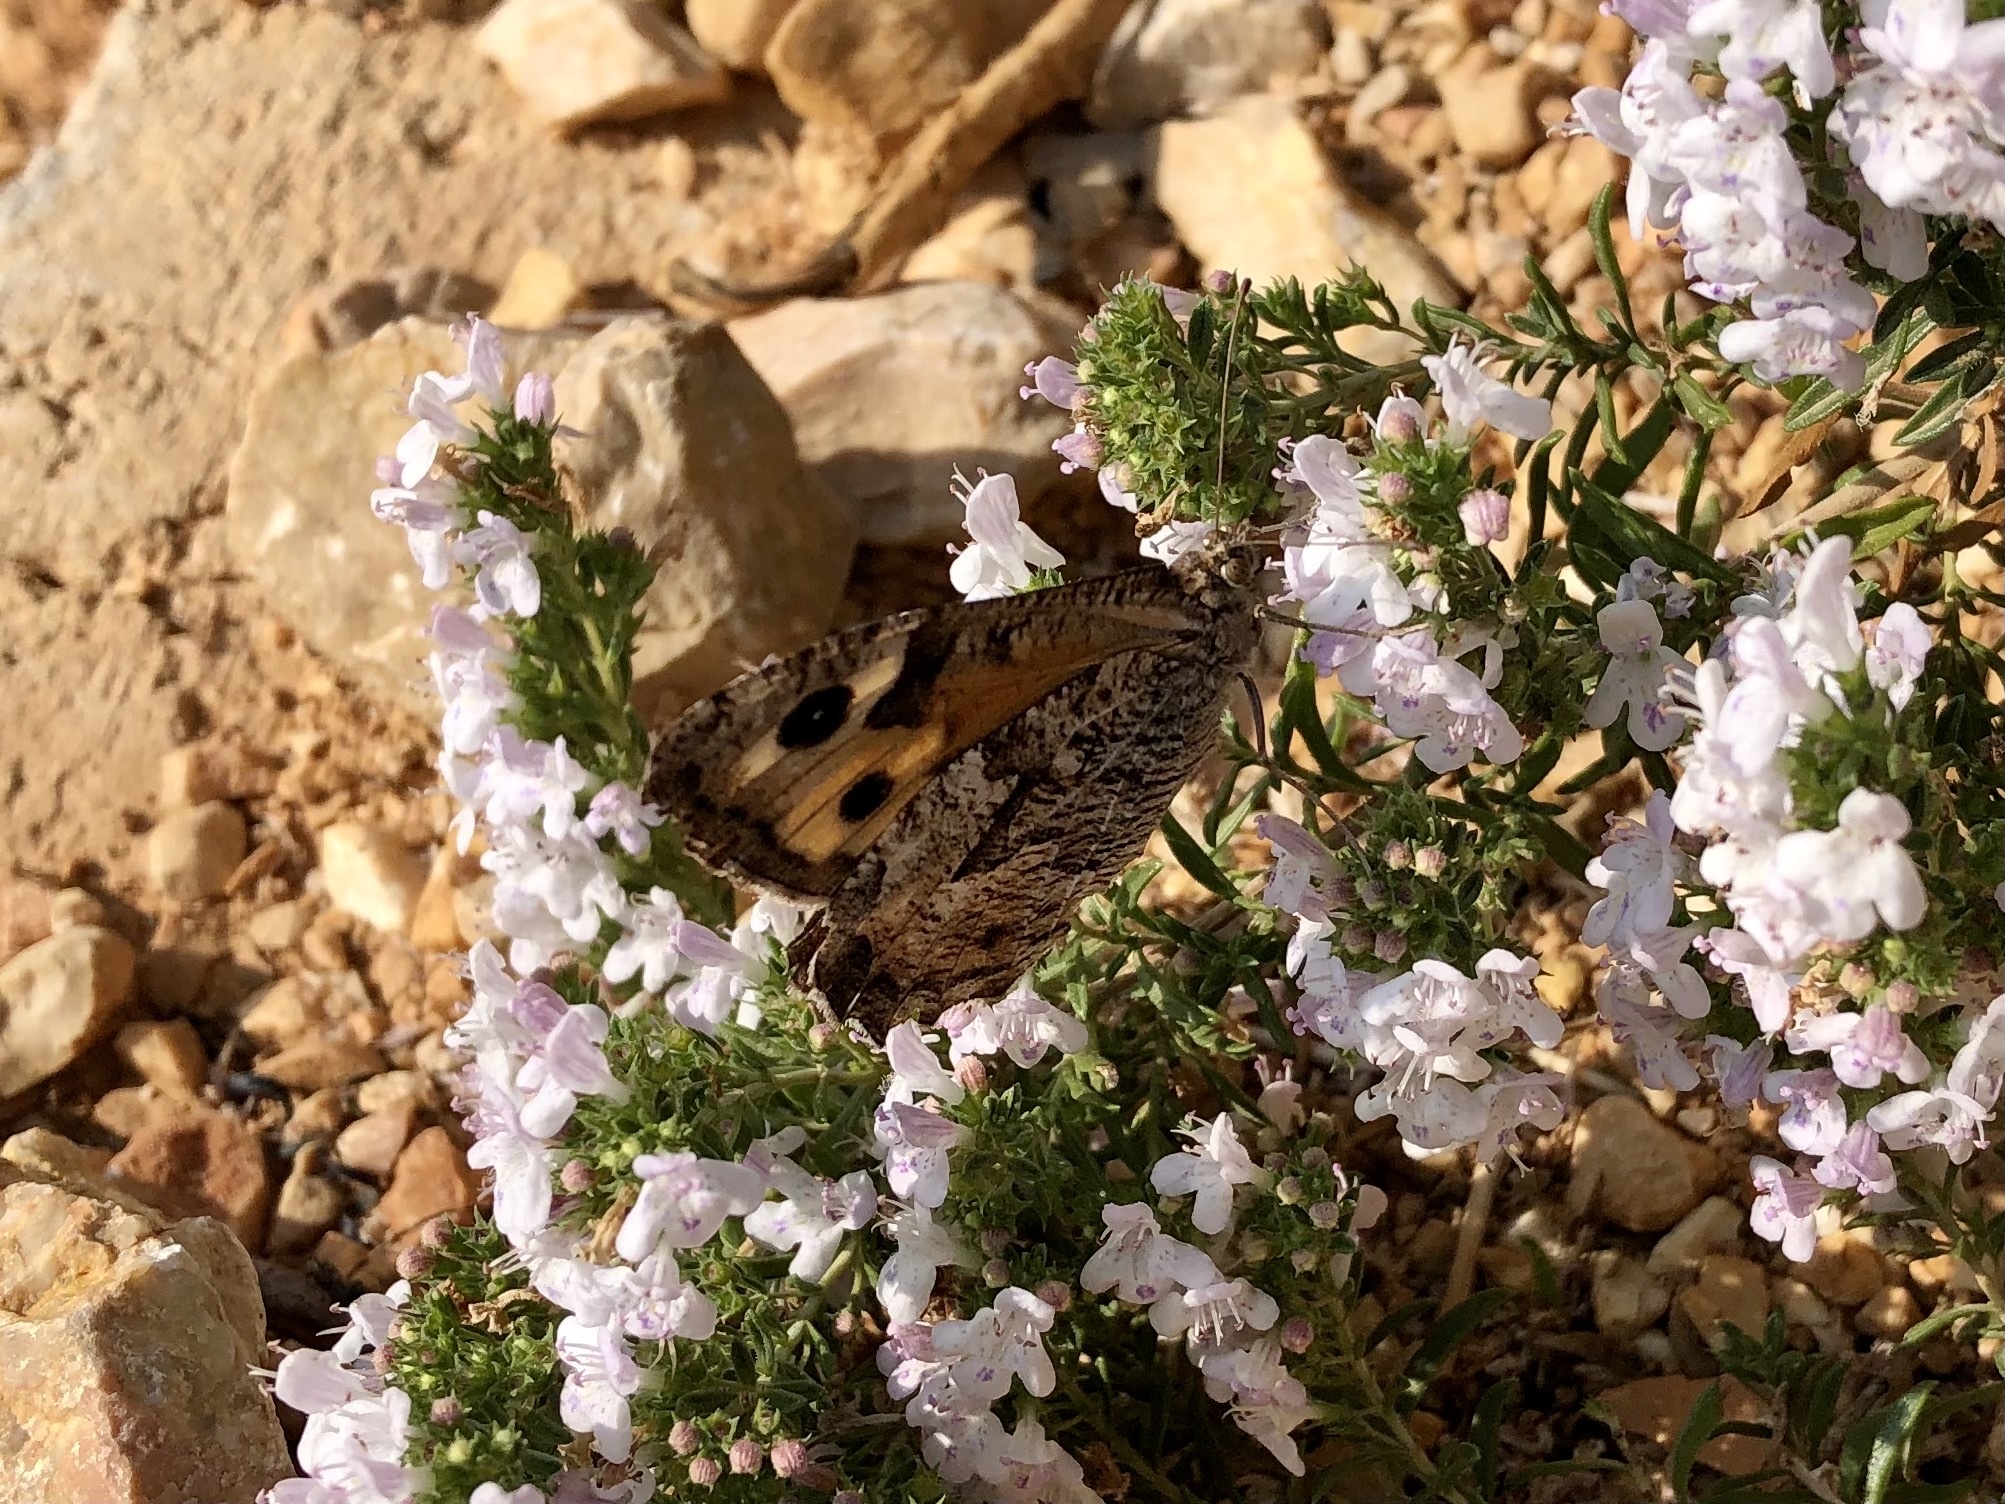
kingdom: Animalia
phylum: Arthropoda
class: Insecta
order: Lepidoptera
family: Nymphalidae
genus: Hipparchia
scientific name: Hipparchia semele
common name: Grayling
